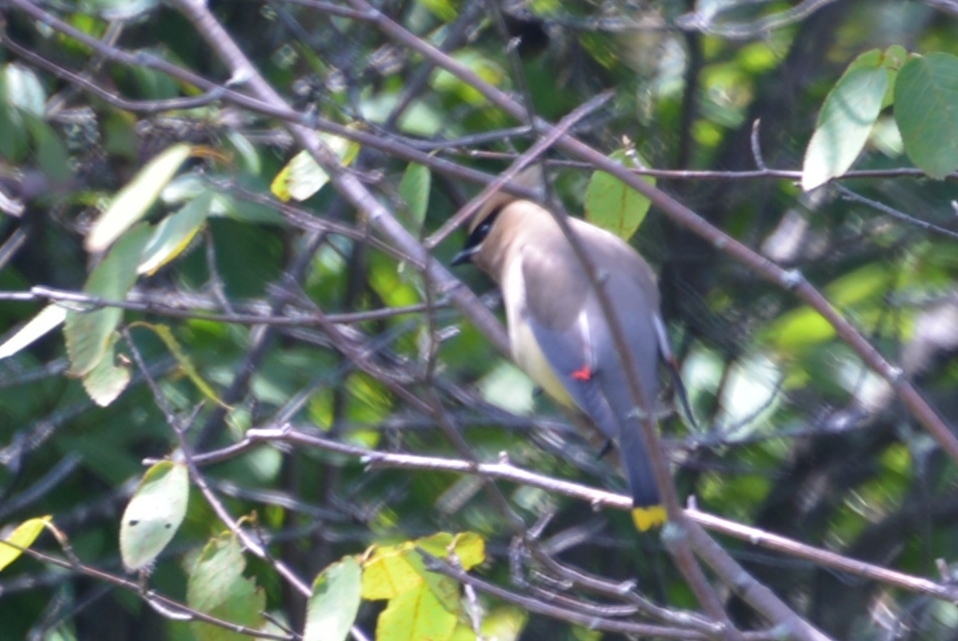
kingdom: Animalia
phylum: Chordata
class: Aves
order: Passeriformes
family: Bombycillidae
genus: Bombycilla
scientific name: Bombycilla cedrorum
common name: Cedar waxwing
